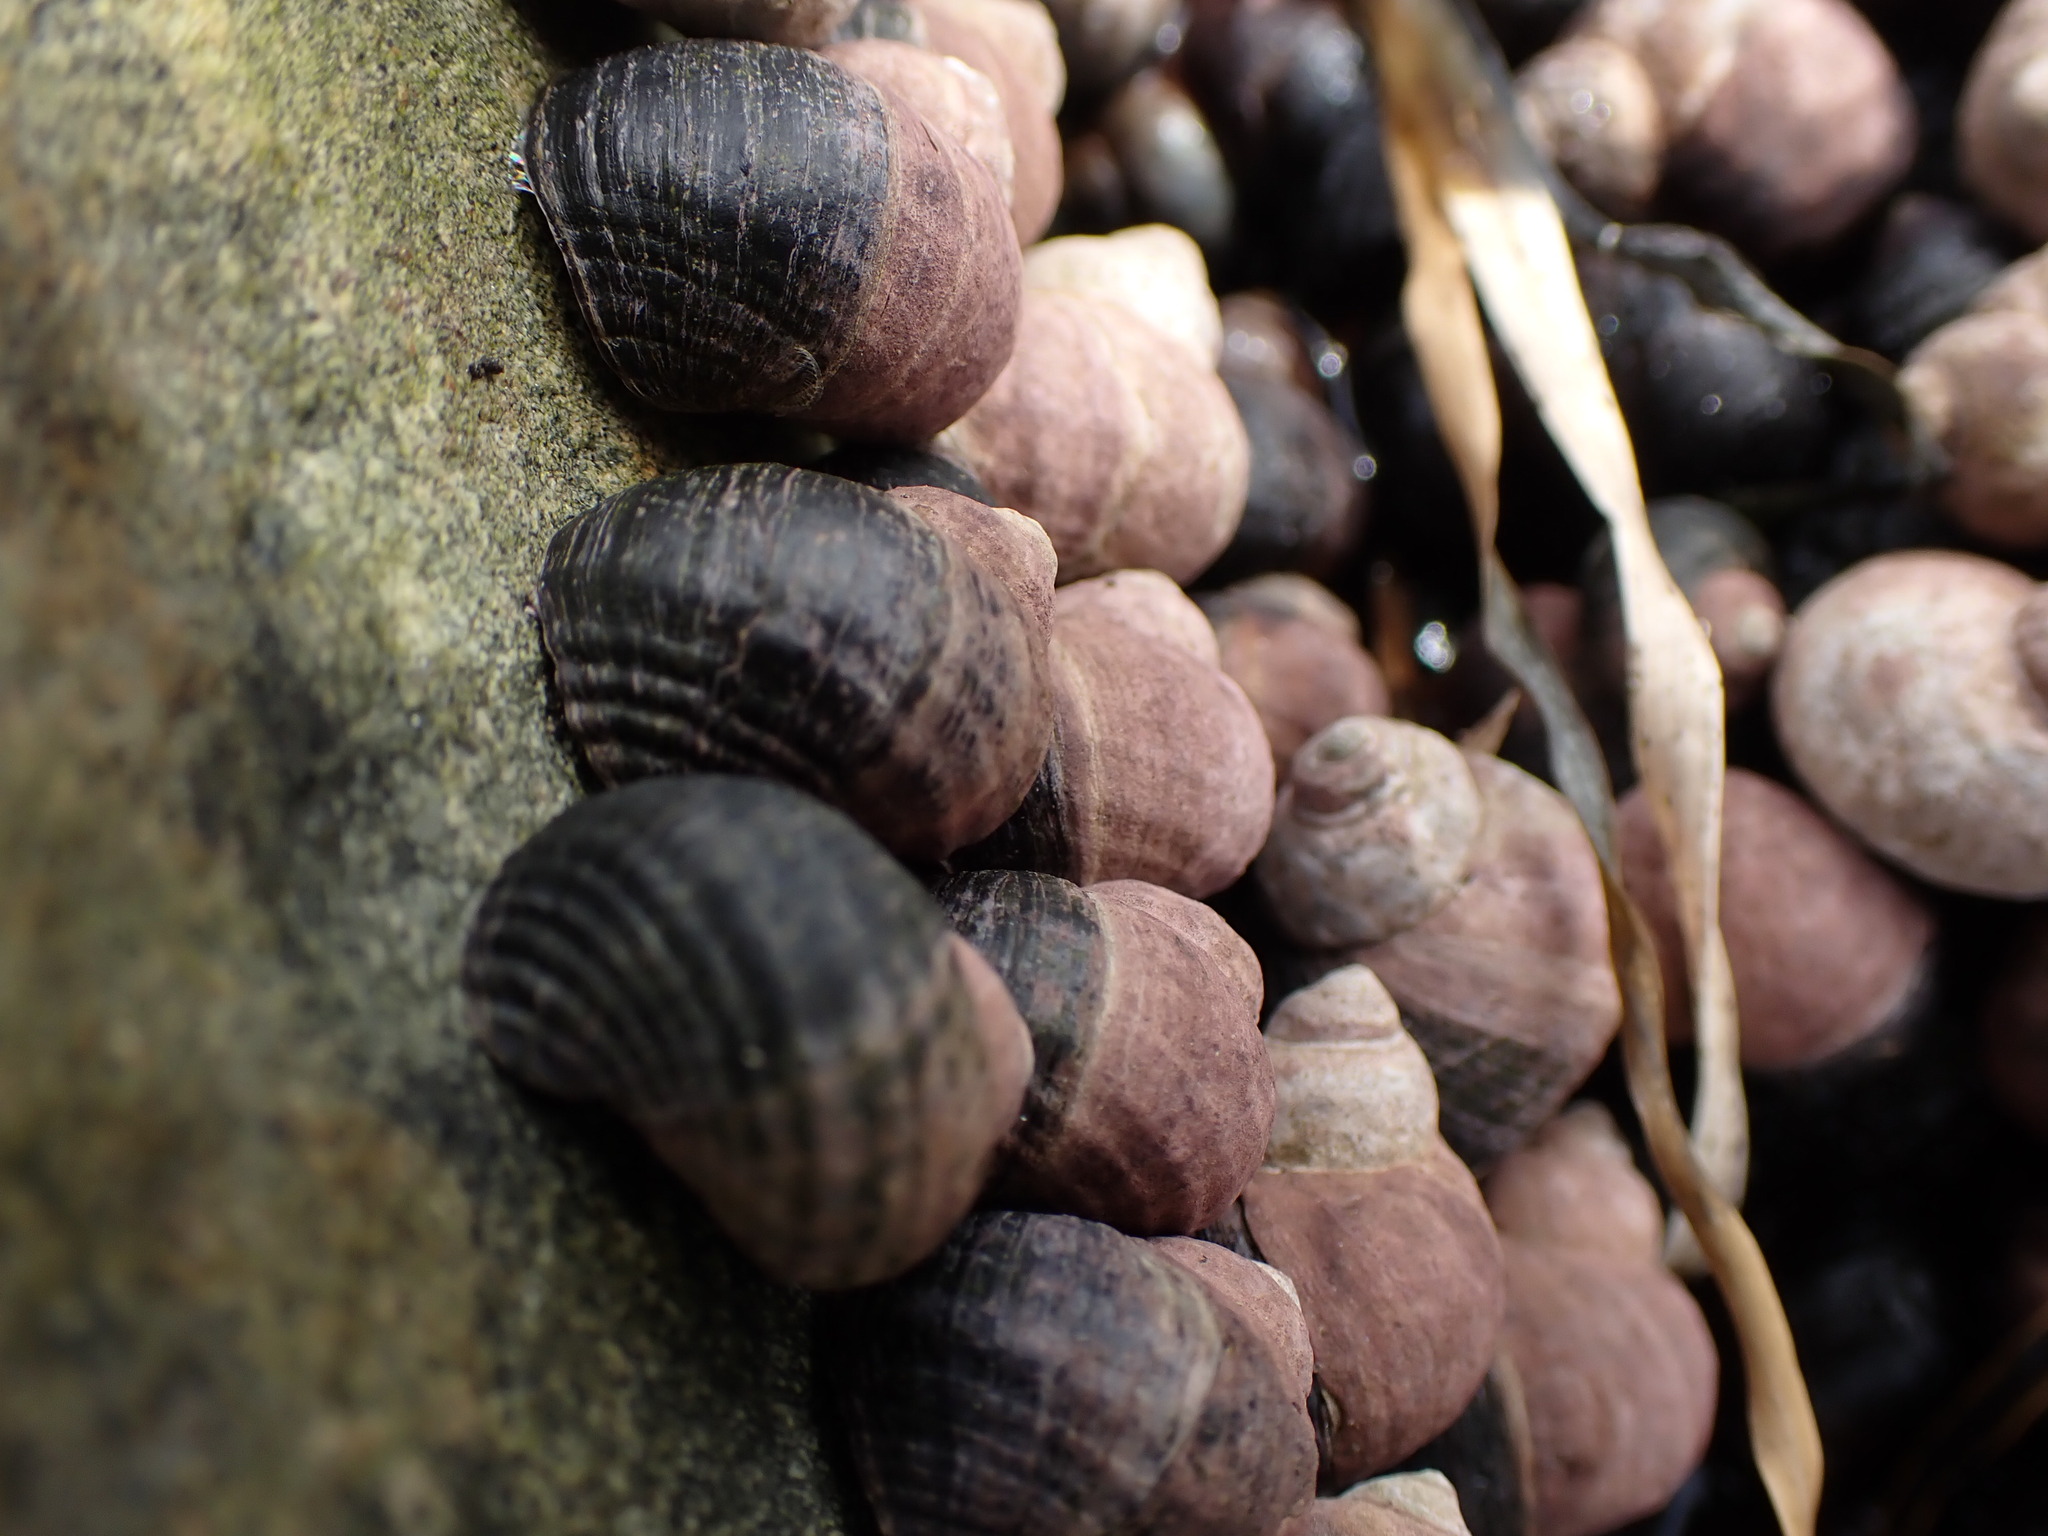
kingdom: Animalia
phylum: Mollusca
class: Gastropoda
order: Littorinimorpha
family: Littorinidae
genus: Littorina
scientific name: Littorina sitkana
